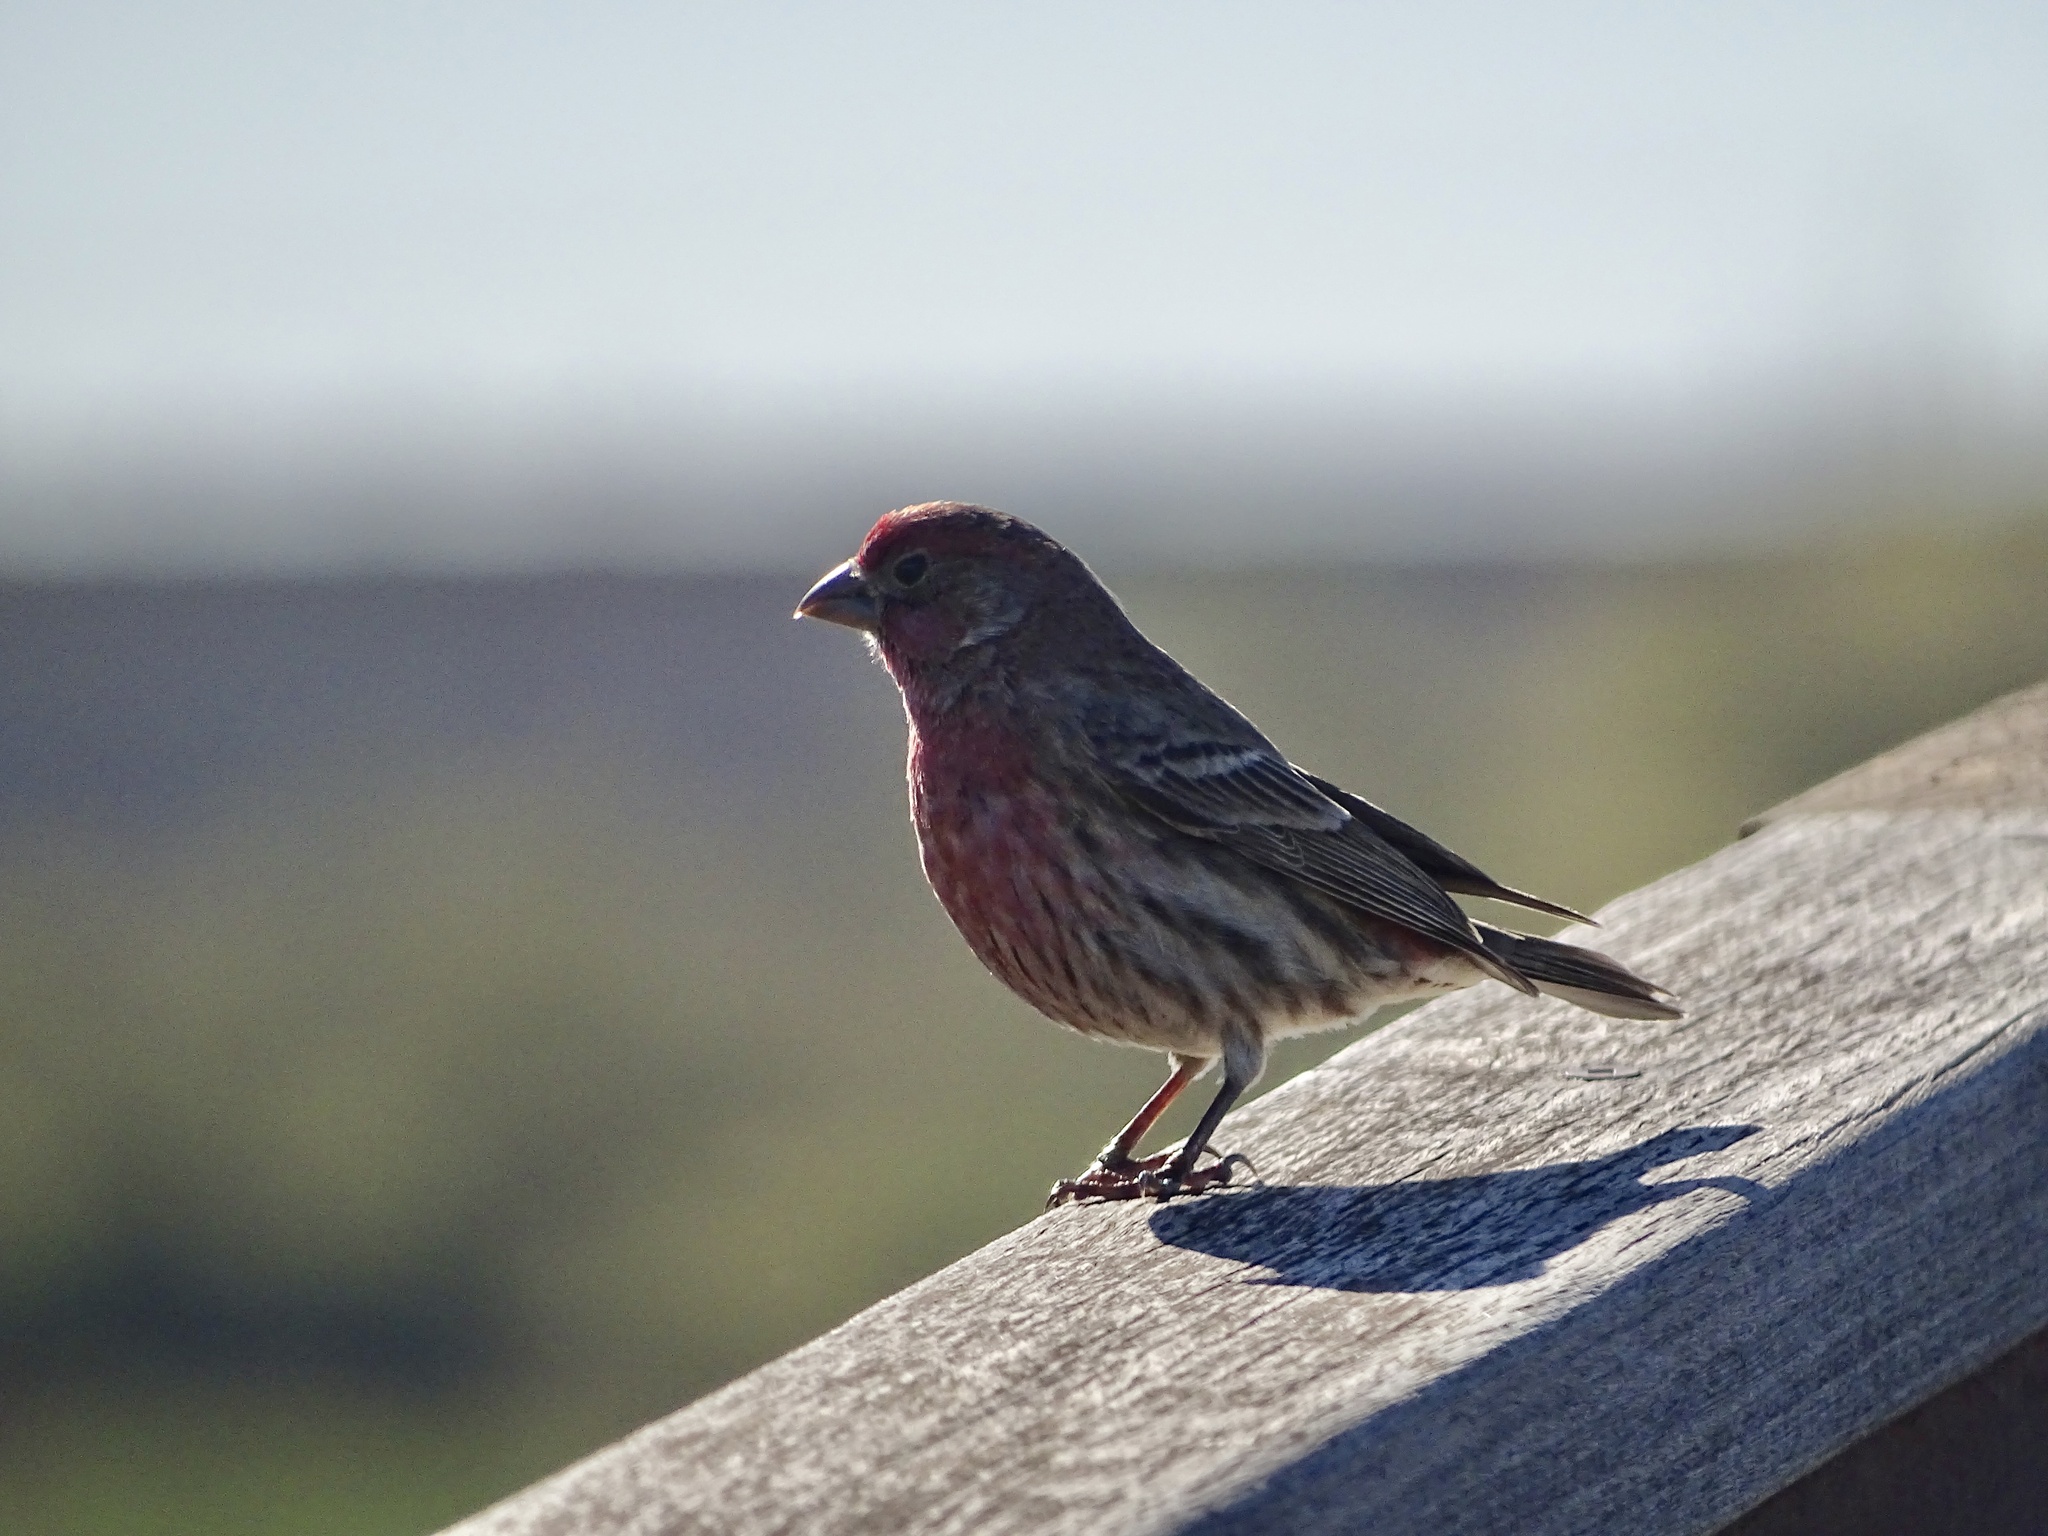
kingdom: Animalia
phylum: Chordata
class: Aves
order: Passeriformes
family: Fringillidae
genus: Haemorhous
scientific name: Haemorhous mexicanus
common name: House finch
